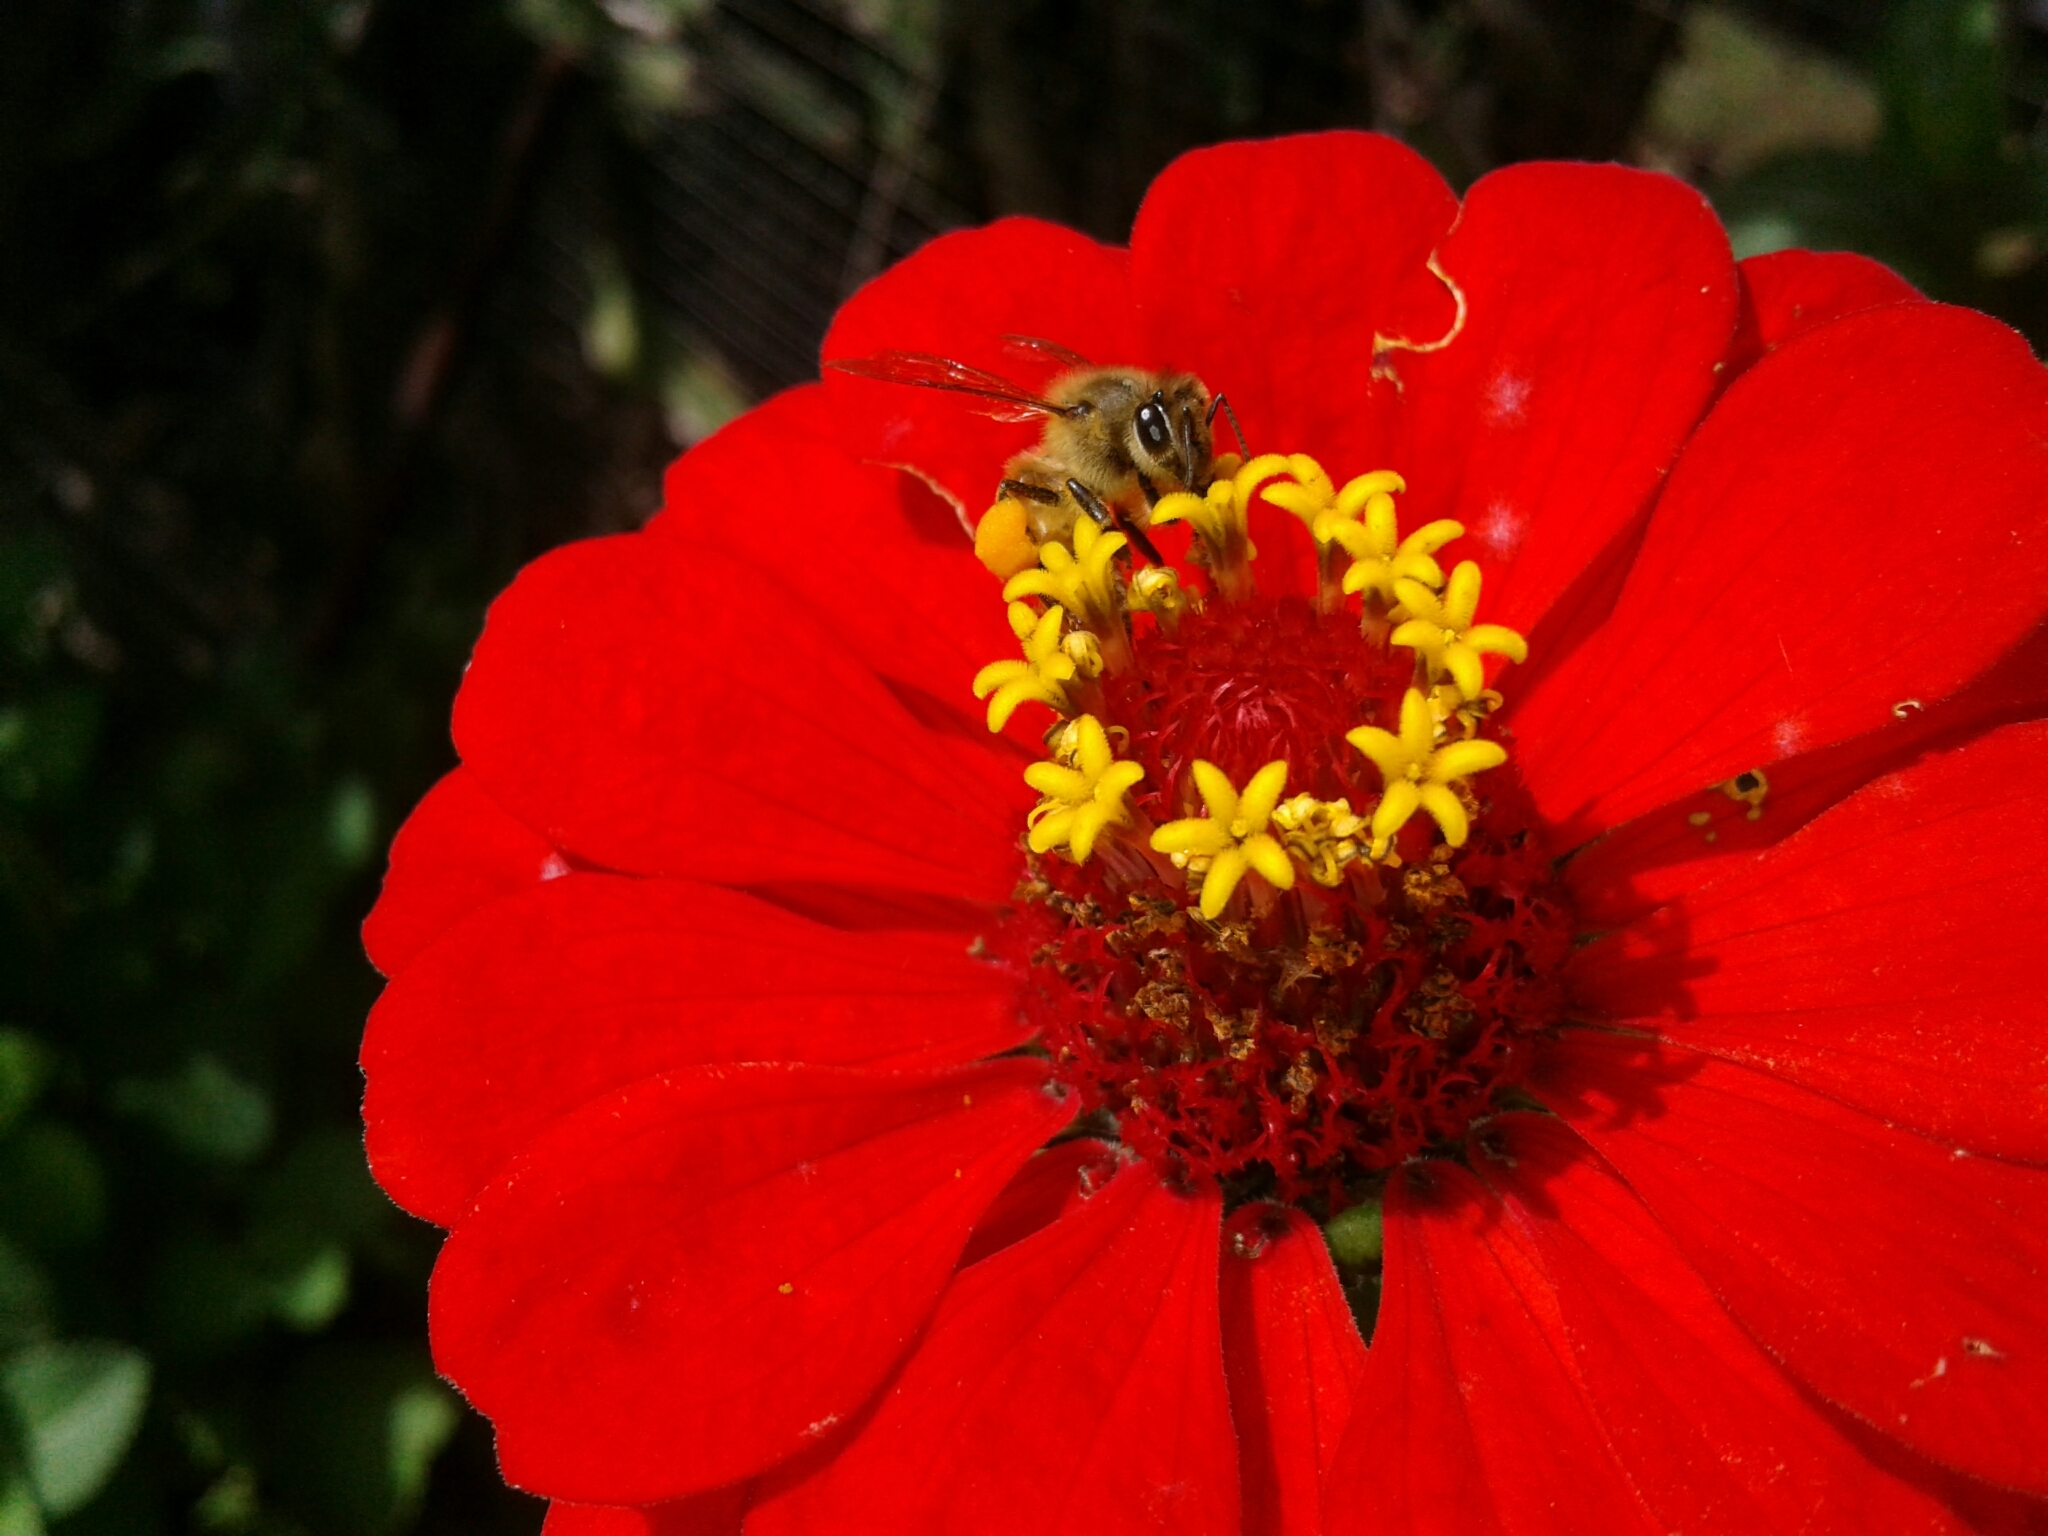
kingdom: Animalia
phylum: Arthropoda
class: Insecta
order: Hymenoptera
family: Apidae
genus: Apis
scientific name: Apis mellifera
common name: Honey bee
